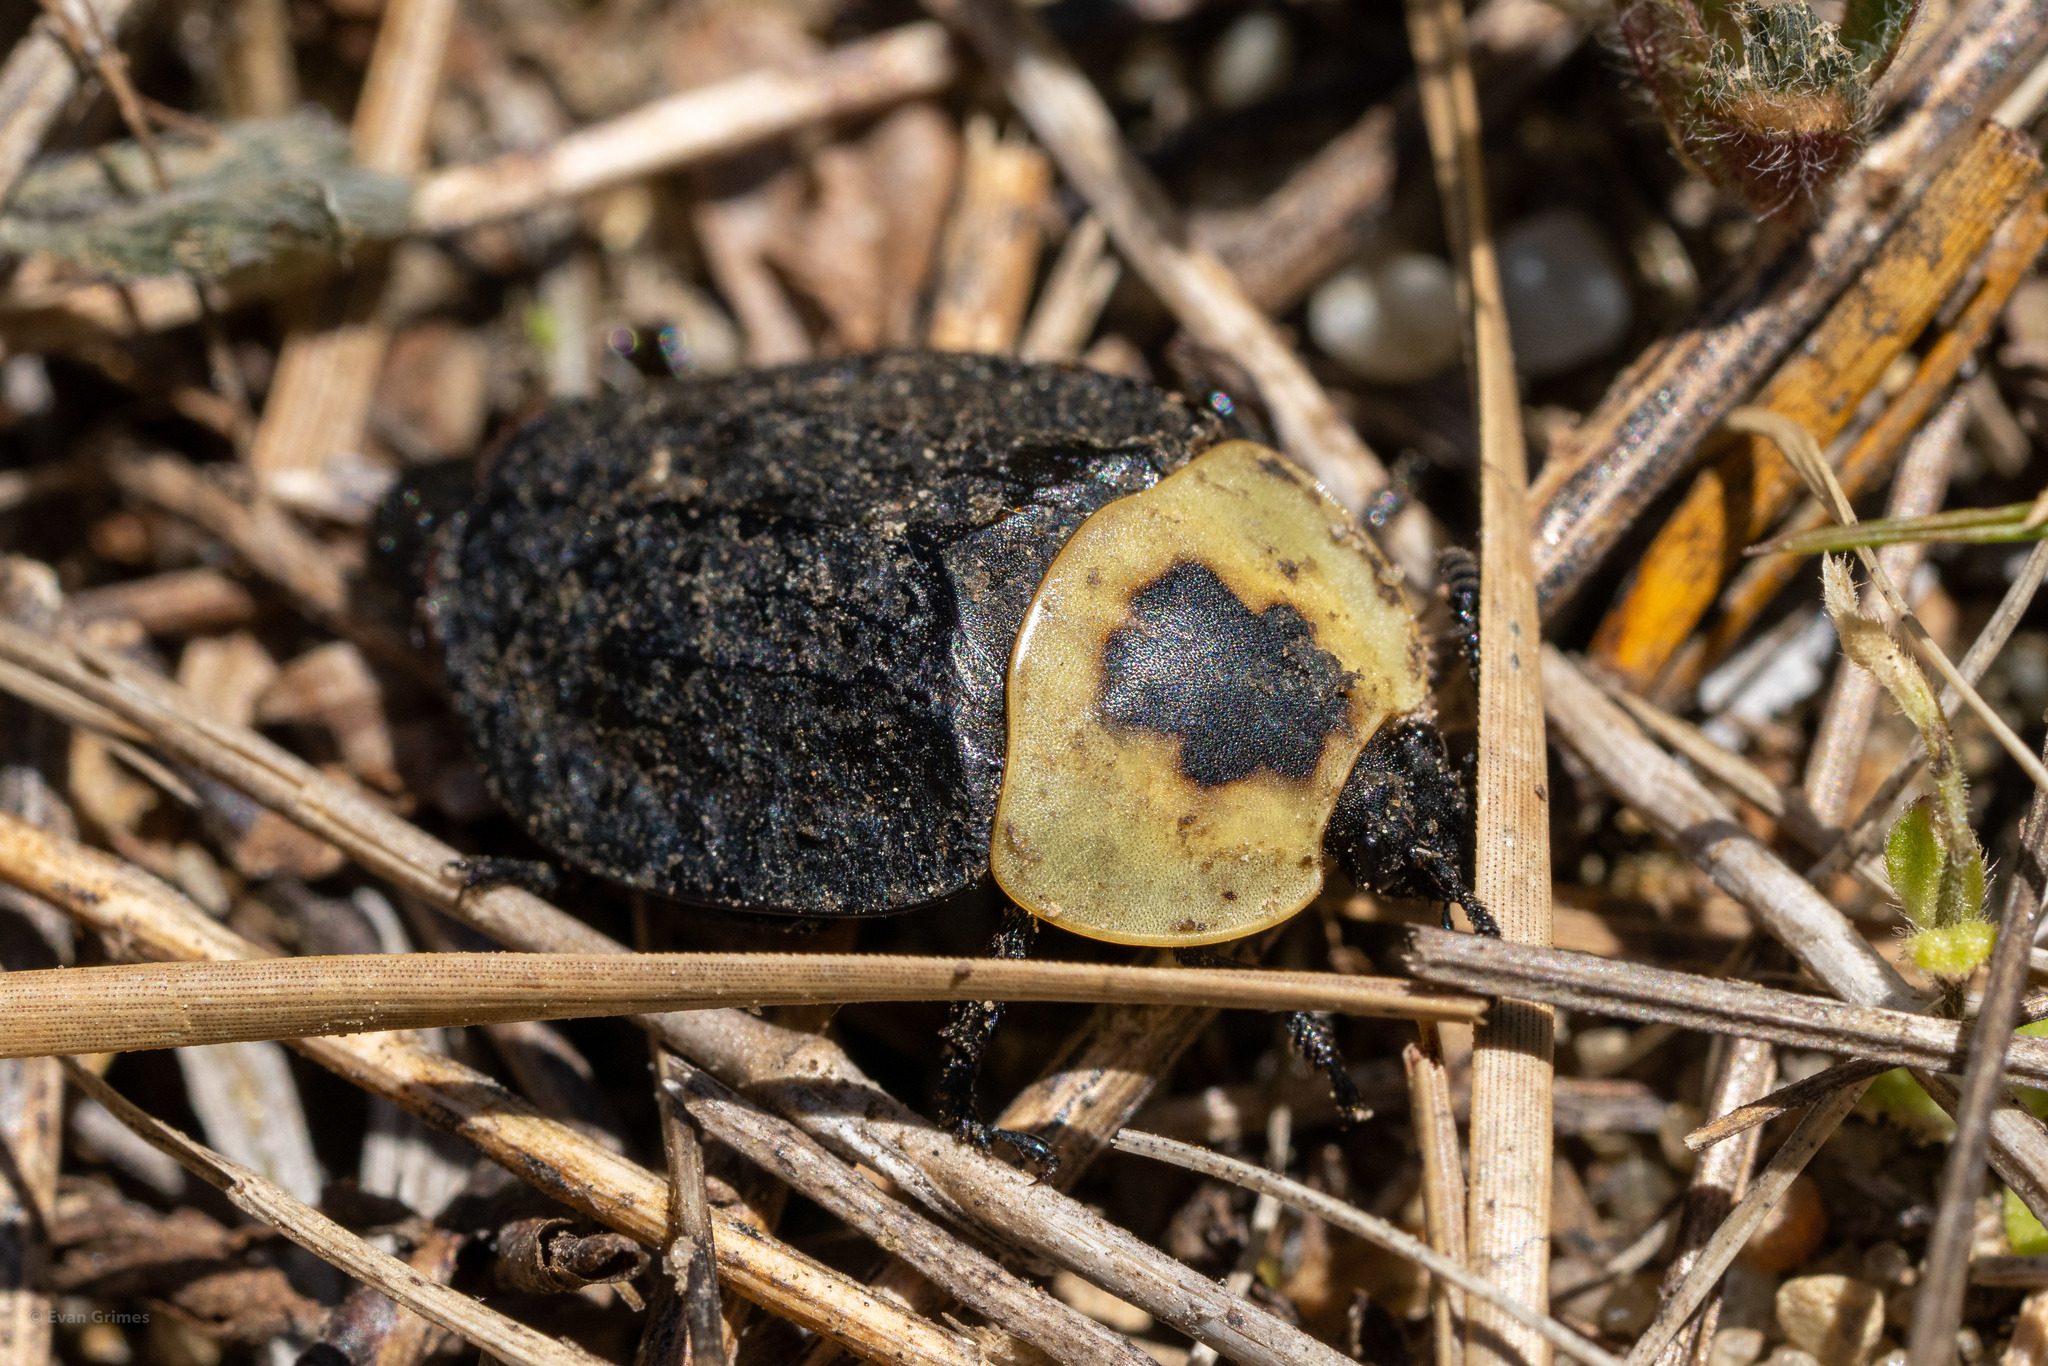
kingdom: Animalia
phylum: Arthropoda
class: Insecta
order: Coleoptera
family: Staphylinidae
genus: Necrophila
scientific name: Necrophila americana
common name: American carrion beetle
